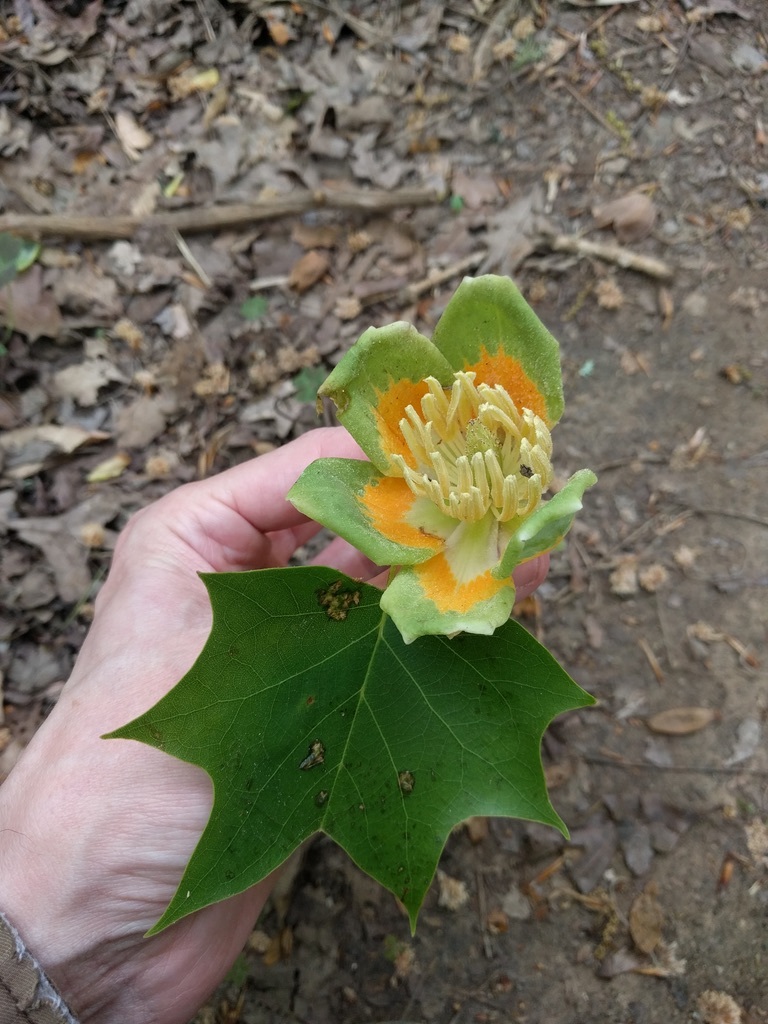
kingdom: Plantae
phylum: Tracheophyta
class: Magnoliopsida
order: Magnoliales
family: Magnoliaceae
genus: Liriodendron
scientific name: Liriodendron tulipifera
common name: Tulip tree
